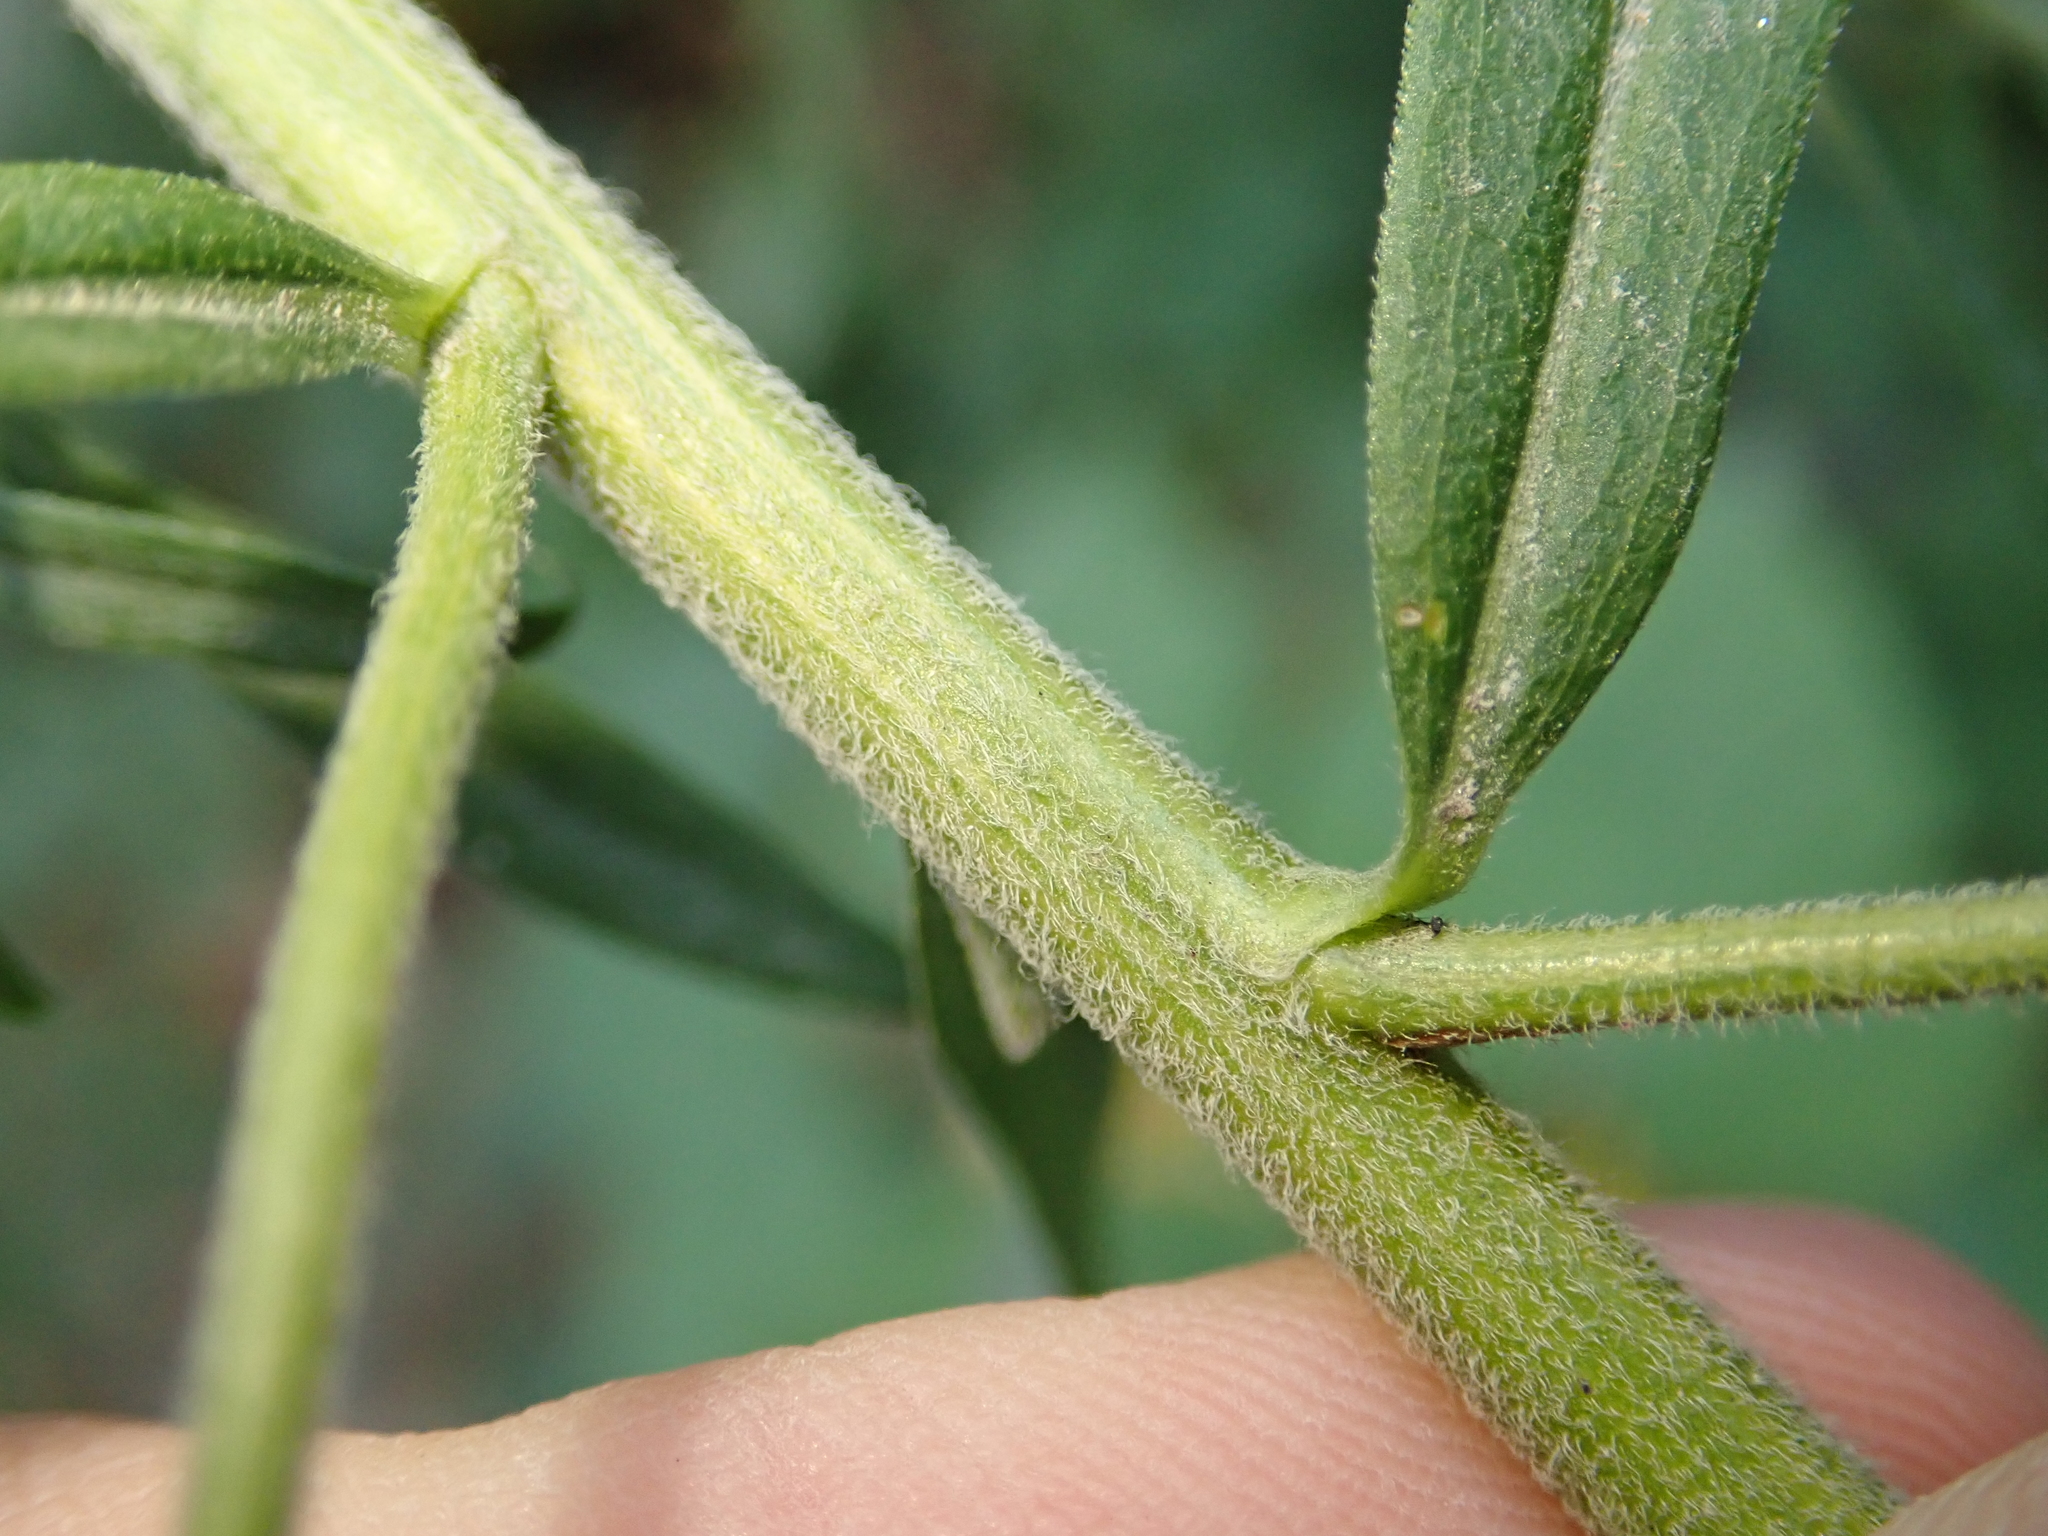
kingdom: Plantae
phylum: Tracheophyta
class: Magnoliopsida
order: Asterales
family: Asteraceae
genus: Solidago
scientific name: Solidago canadensis
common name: Canada goldenrod
